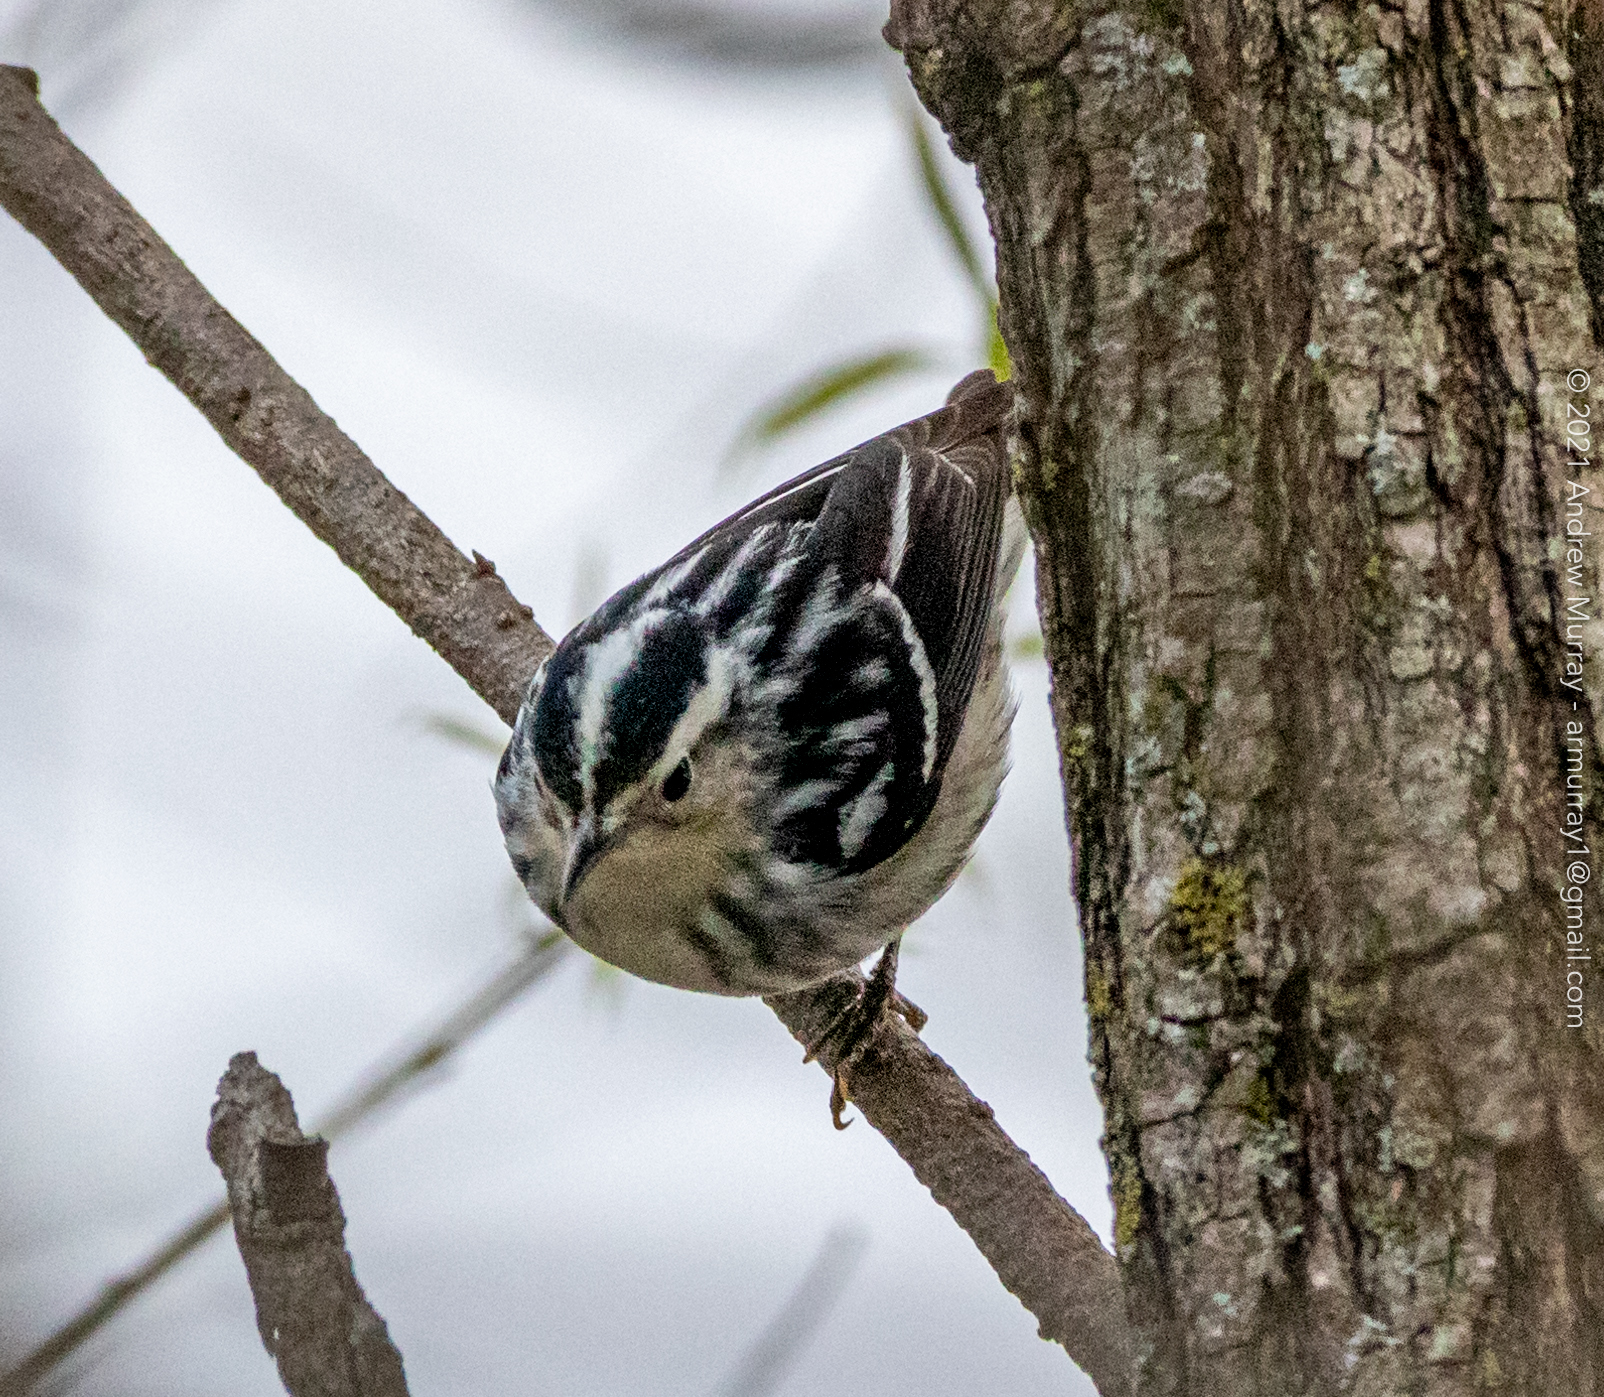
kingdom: Animalia
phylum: Chordata
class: Aves
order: Passeriformes
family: Parulidae
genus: Mniotilta
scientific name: Mniotilta varia
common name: Black-and-white warbler
